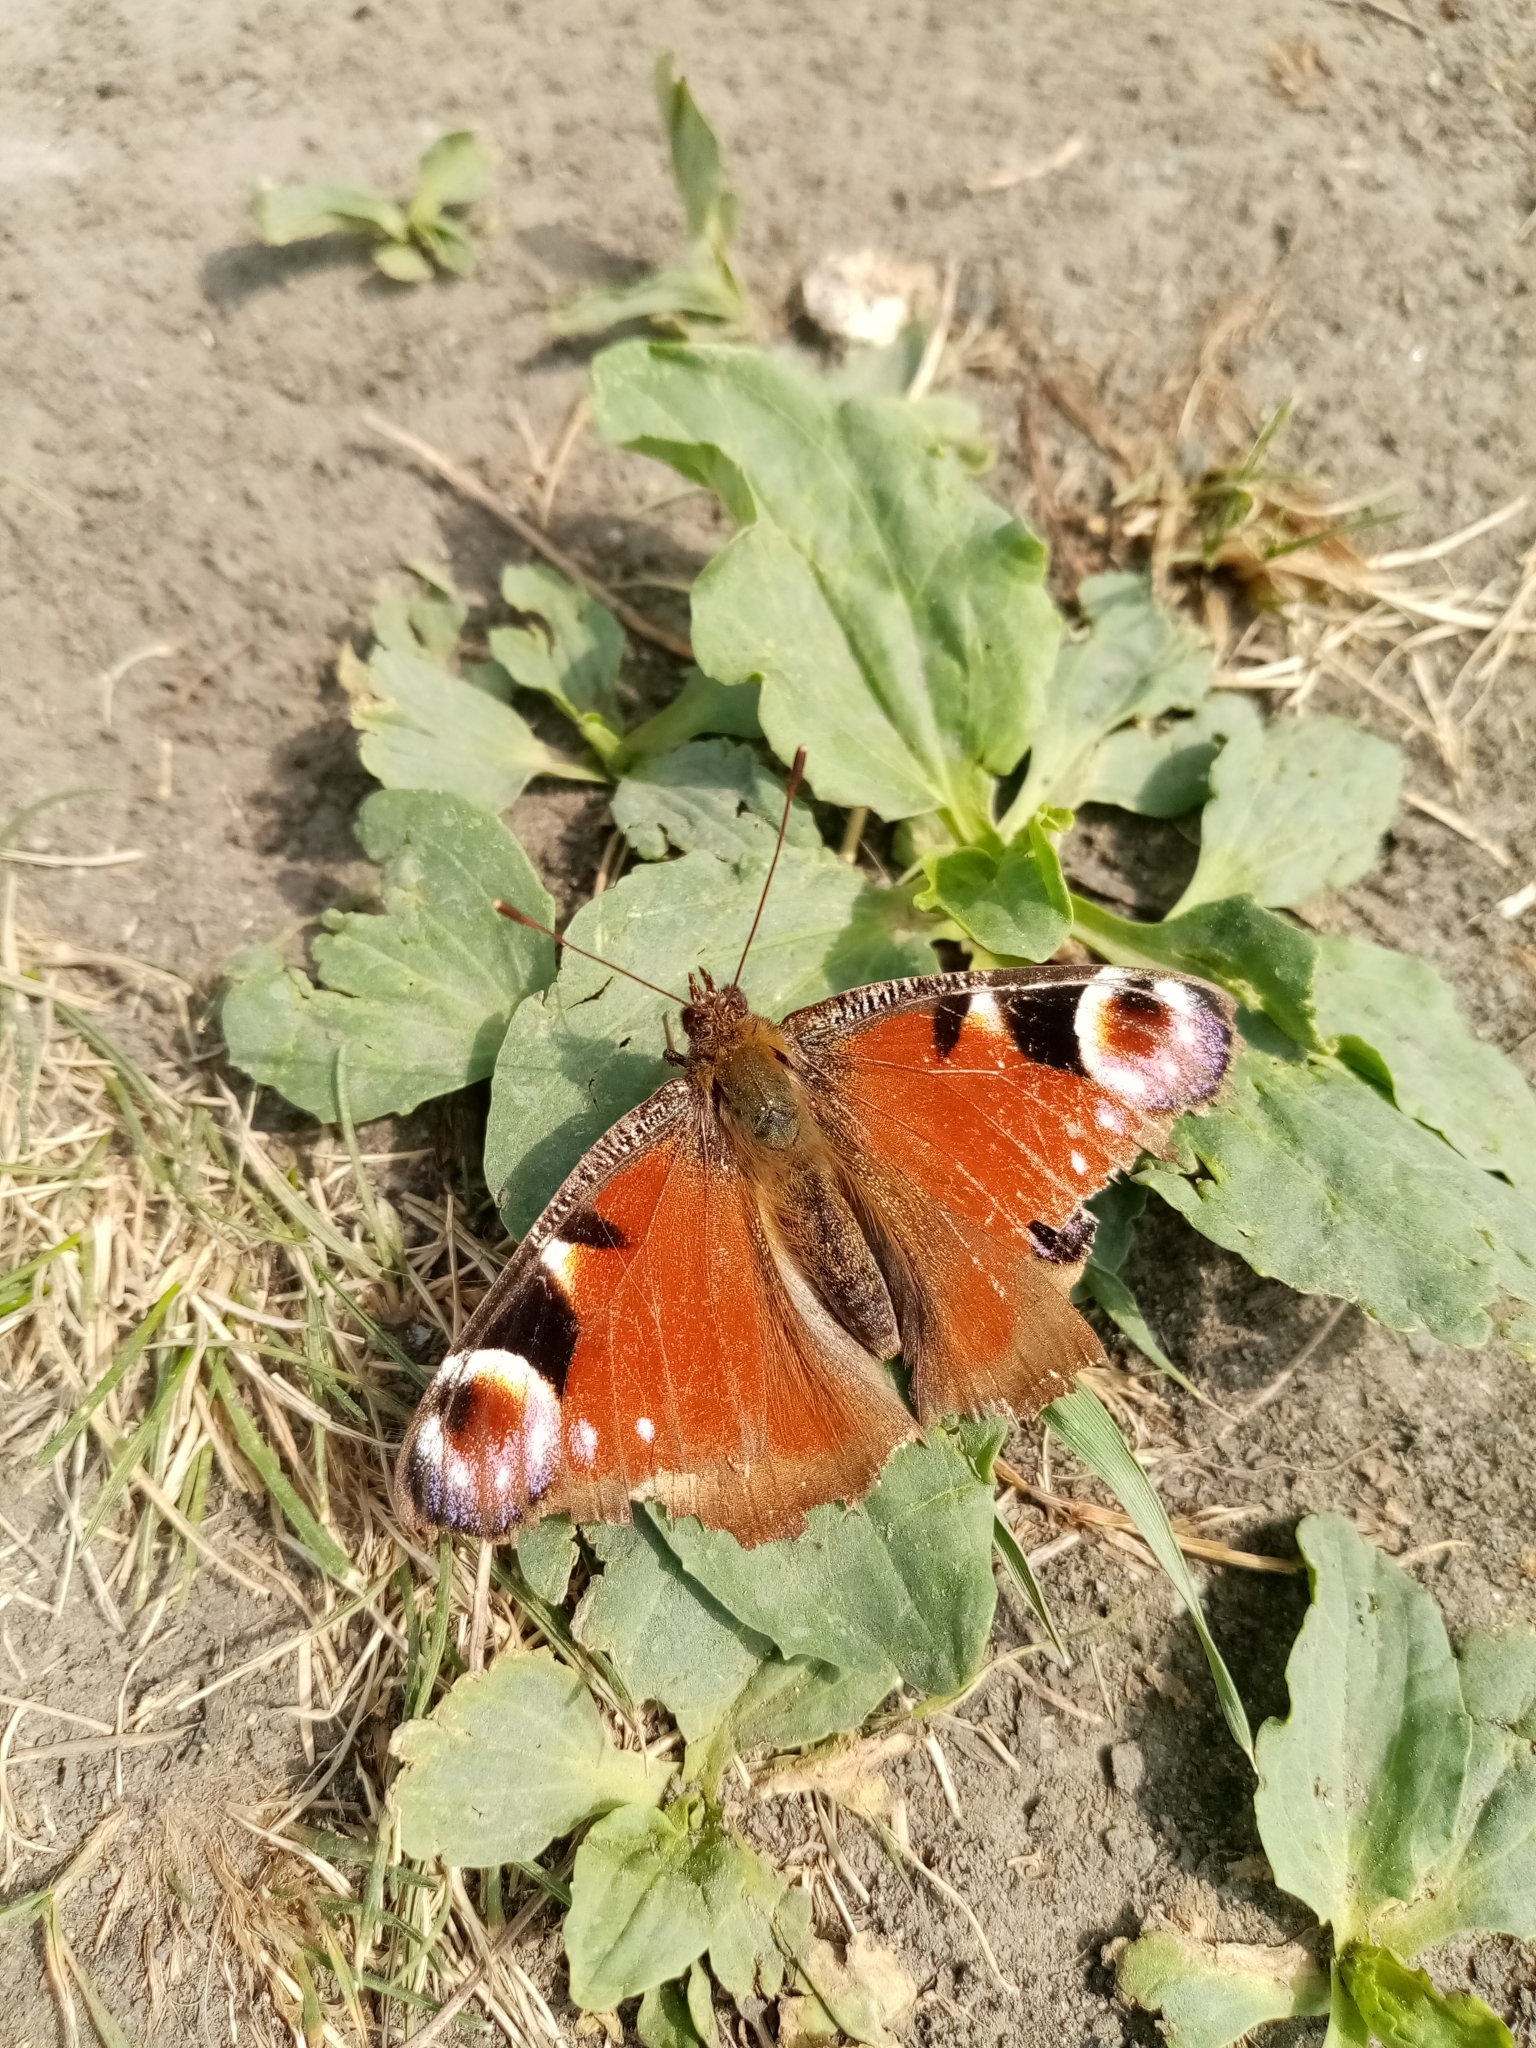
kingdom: Animalia
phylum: Arthropoda
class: Insecta
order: Lepidoptera
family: Nymphalidae
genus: Aglais
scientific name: Aglais io
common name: Peacock
